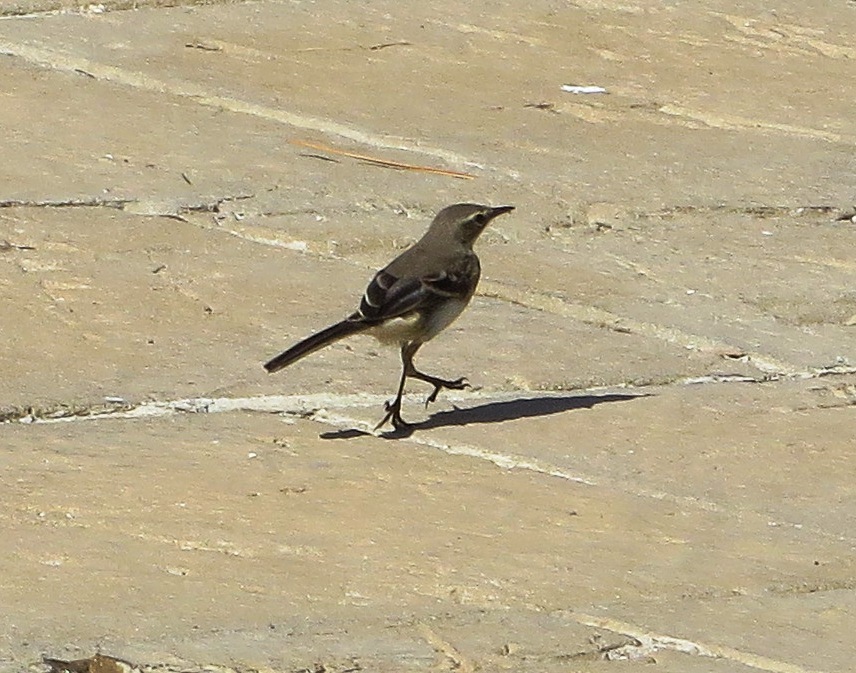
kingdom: Animalia
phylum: Chordata
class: Aves
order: Passeriformes
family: Motacillidae
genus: Motacilla
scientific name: Motacilla capensis
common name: Cape wagtail
